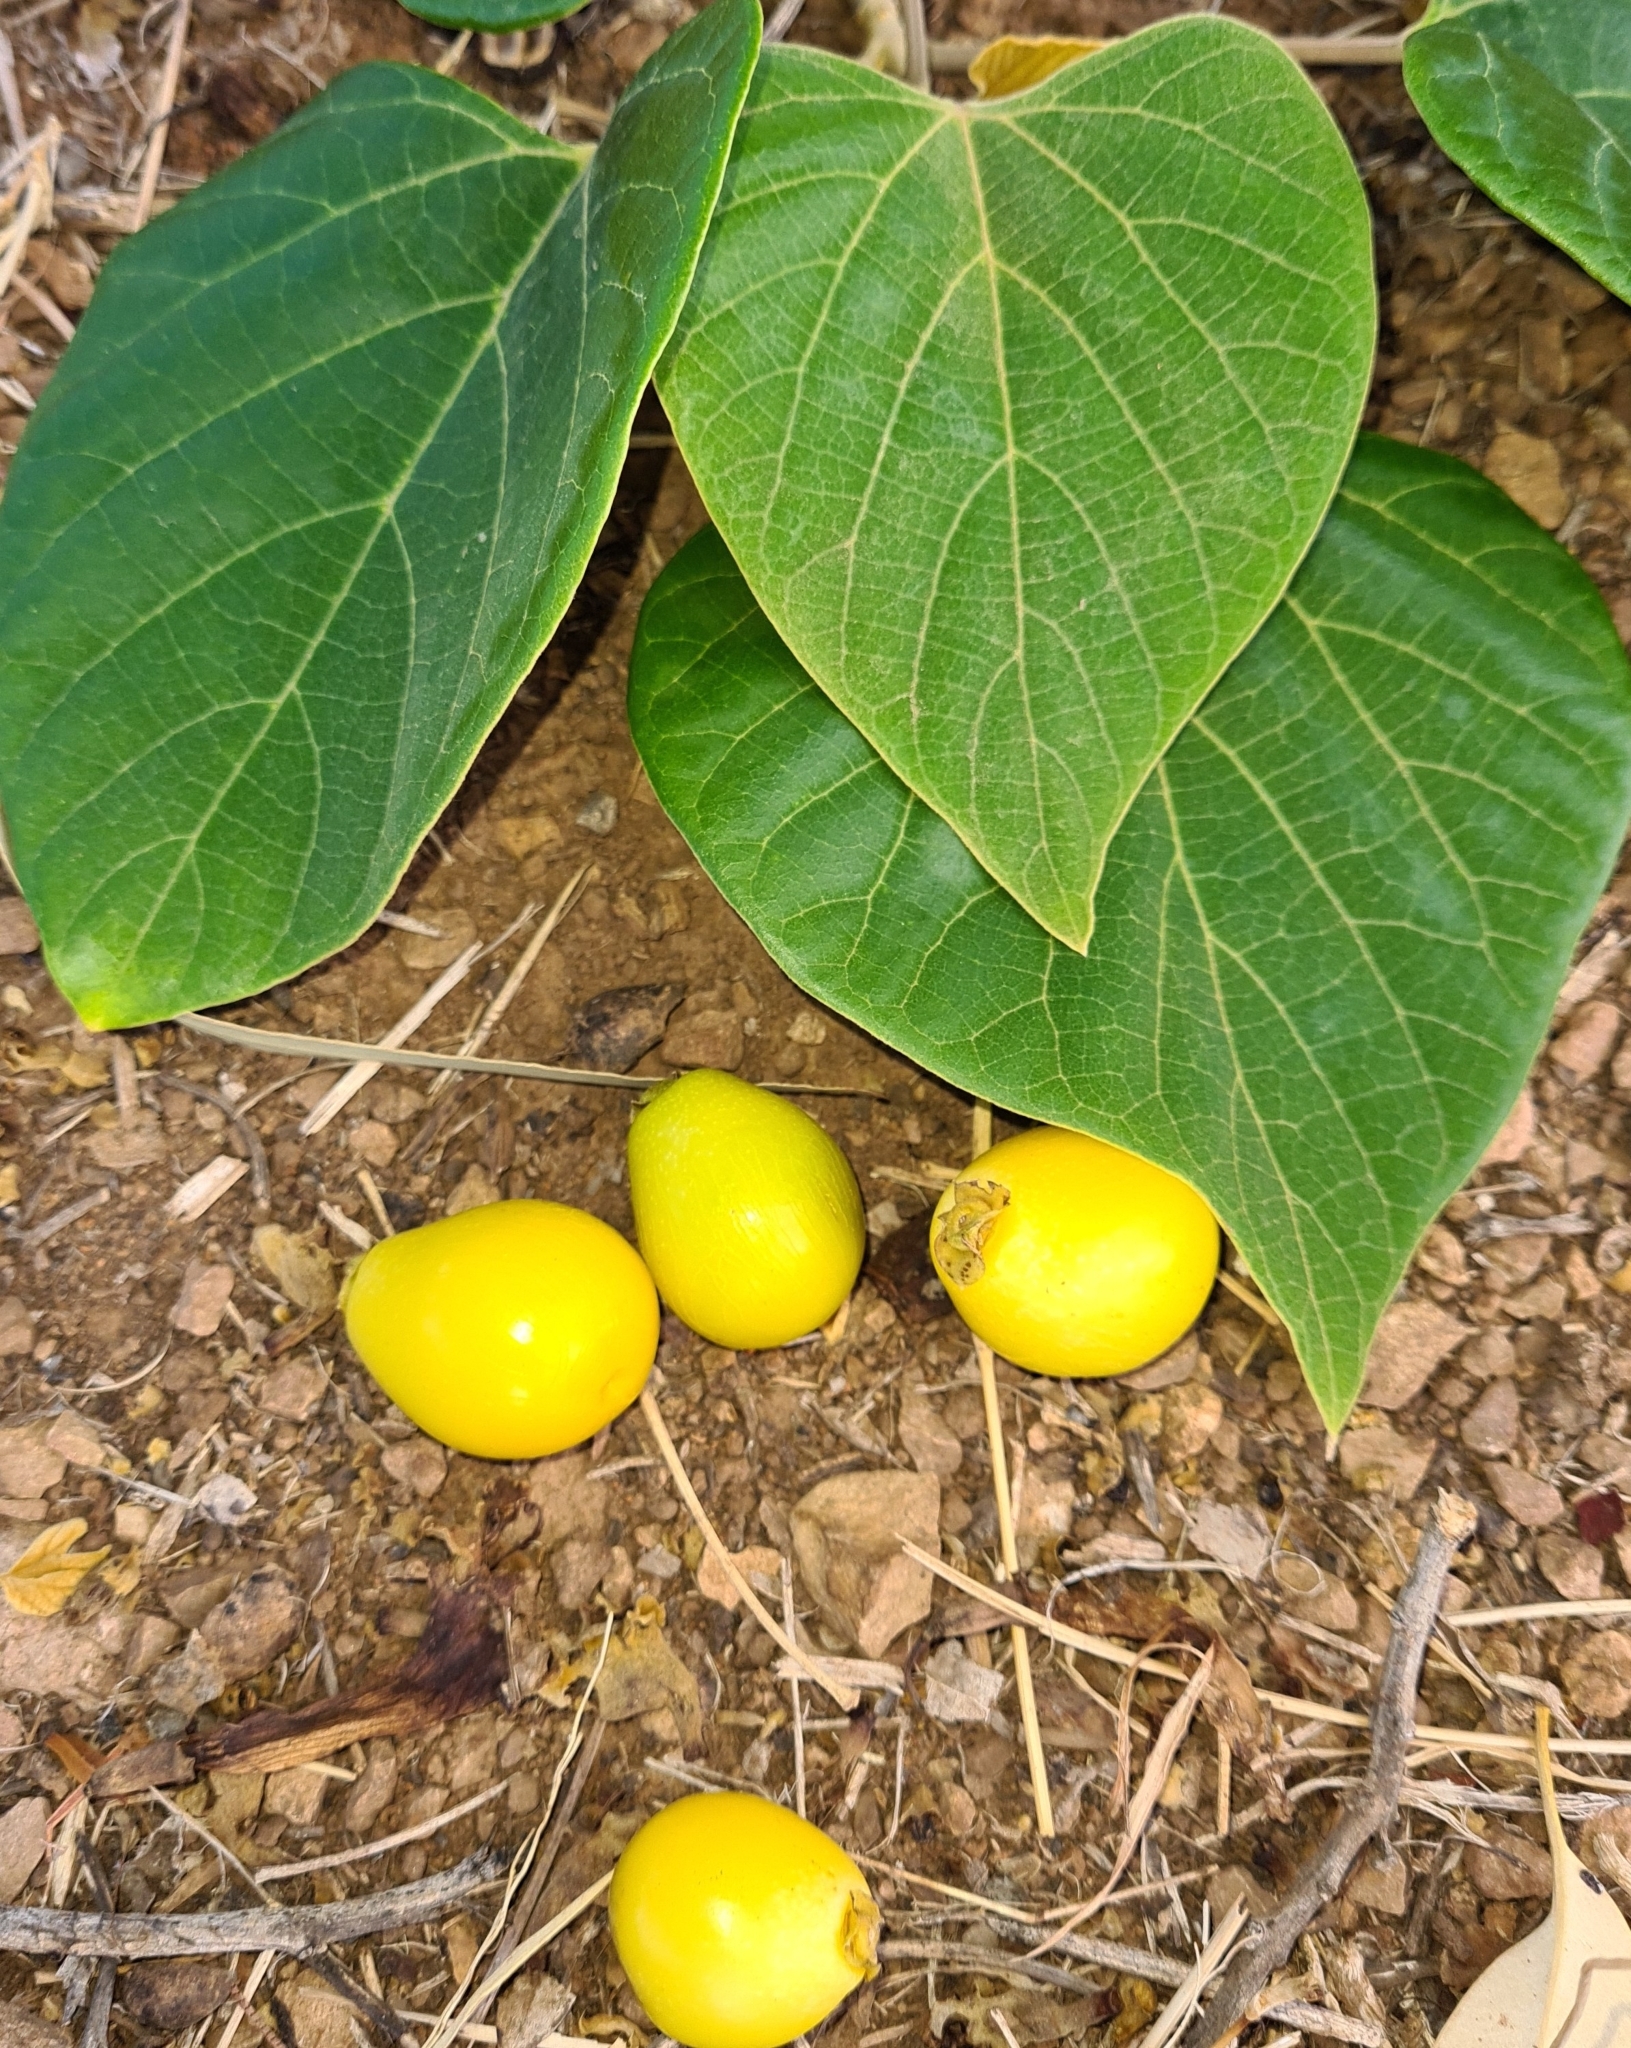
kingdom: Plantae
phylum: Tracheophyta
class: Magnoliopsida
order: Lamiales
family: Lamiaceae
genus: Gmelina
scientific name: Gmelina arborea
